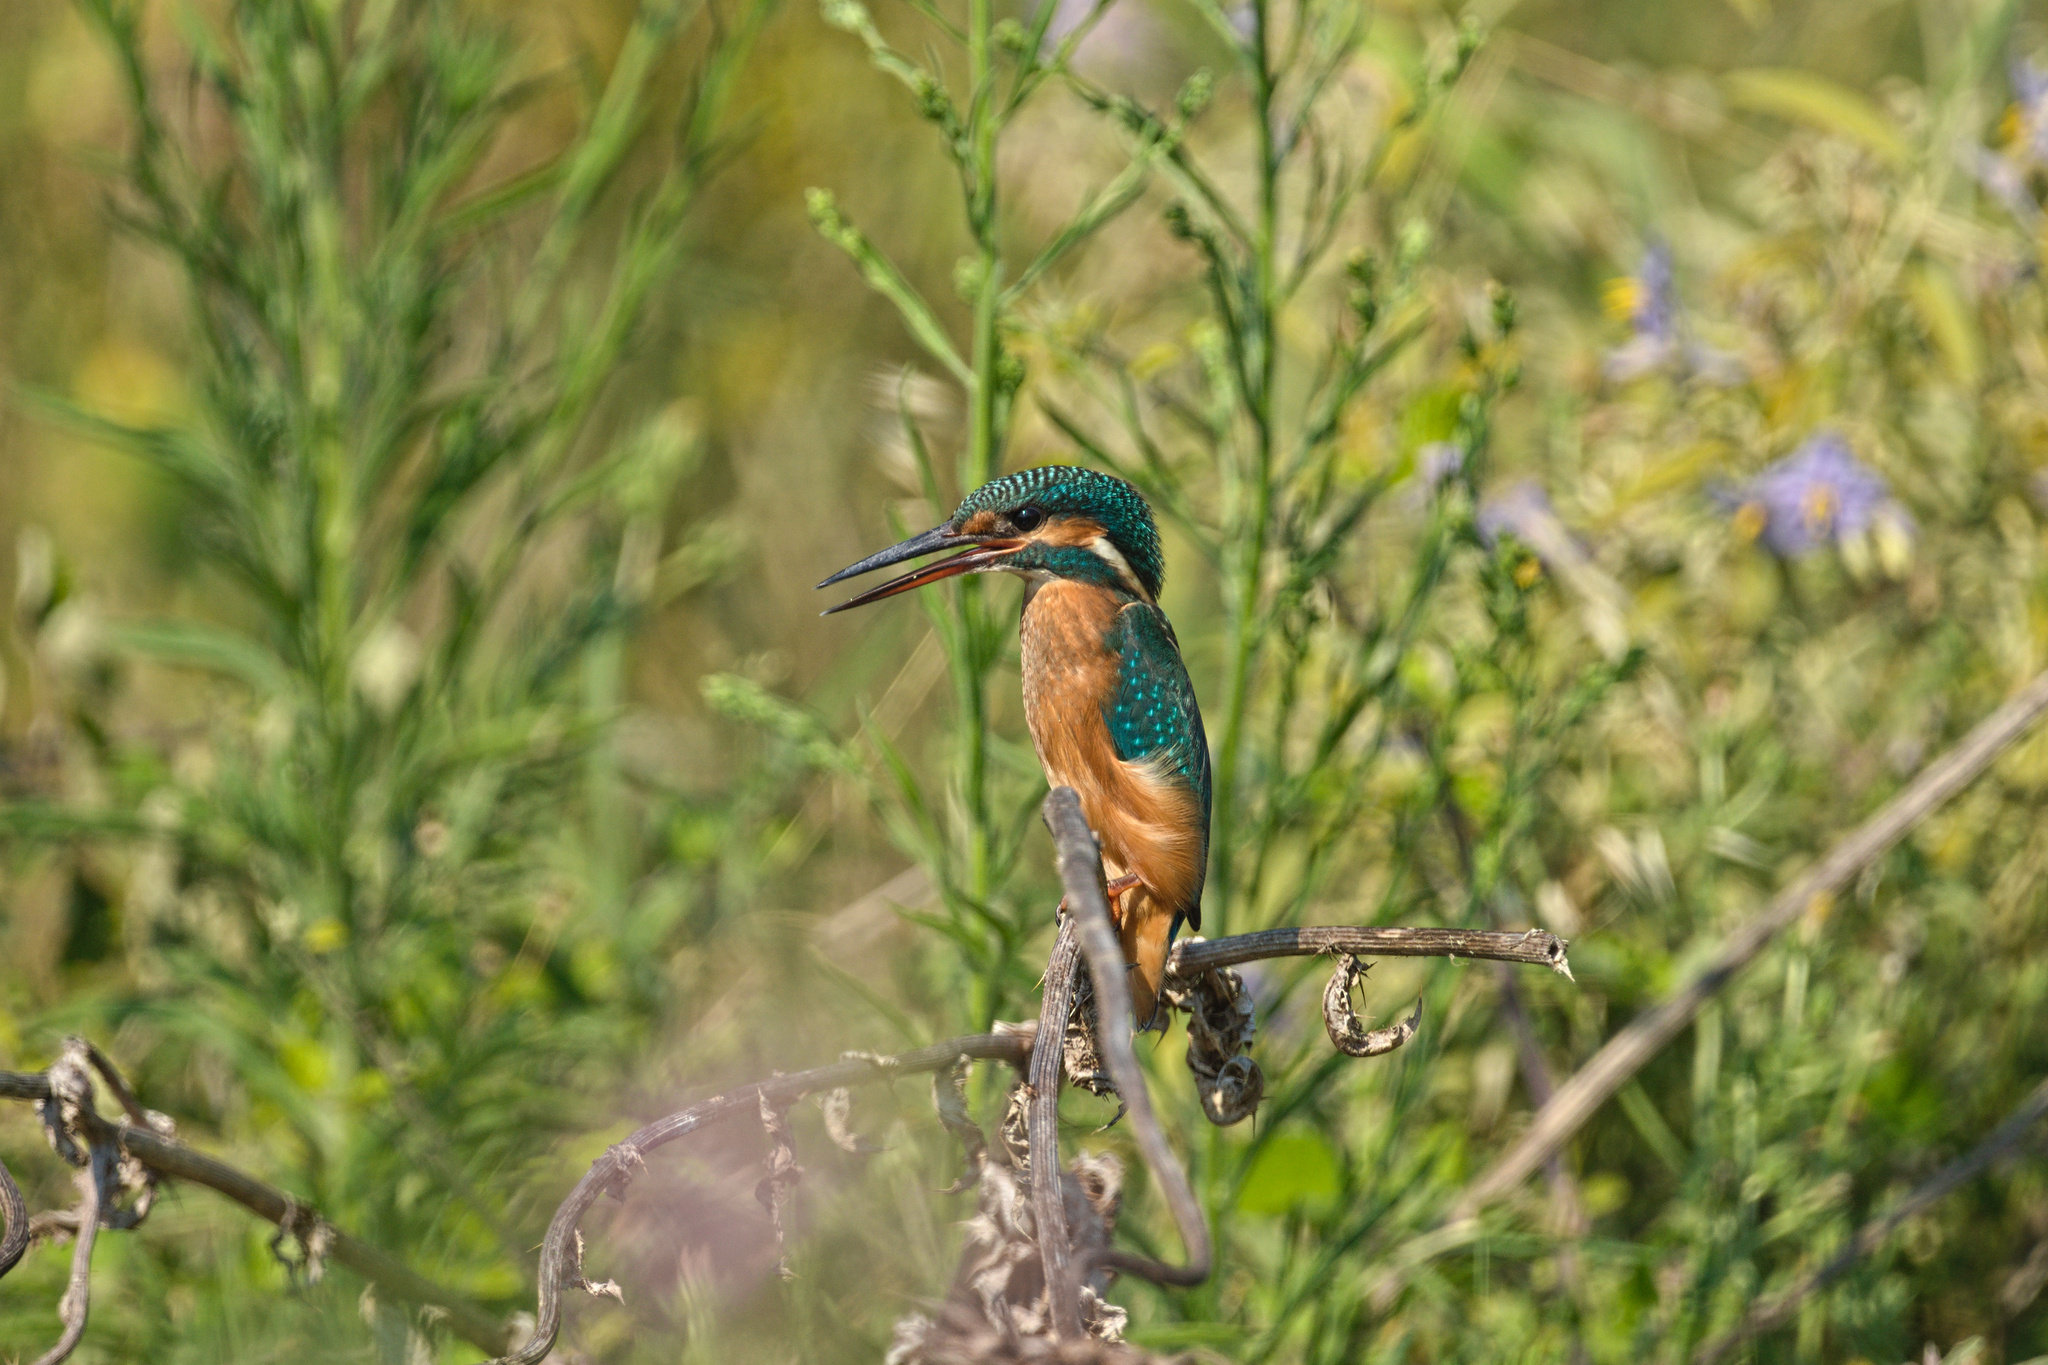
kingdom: Animalia
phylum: Chordata
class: Aves
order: Coraciiformes
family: Alcedinidae
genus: Alcedo
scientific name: Alcedo atthis
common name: Common kingfisher
